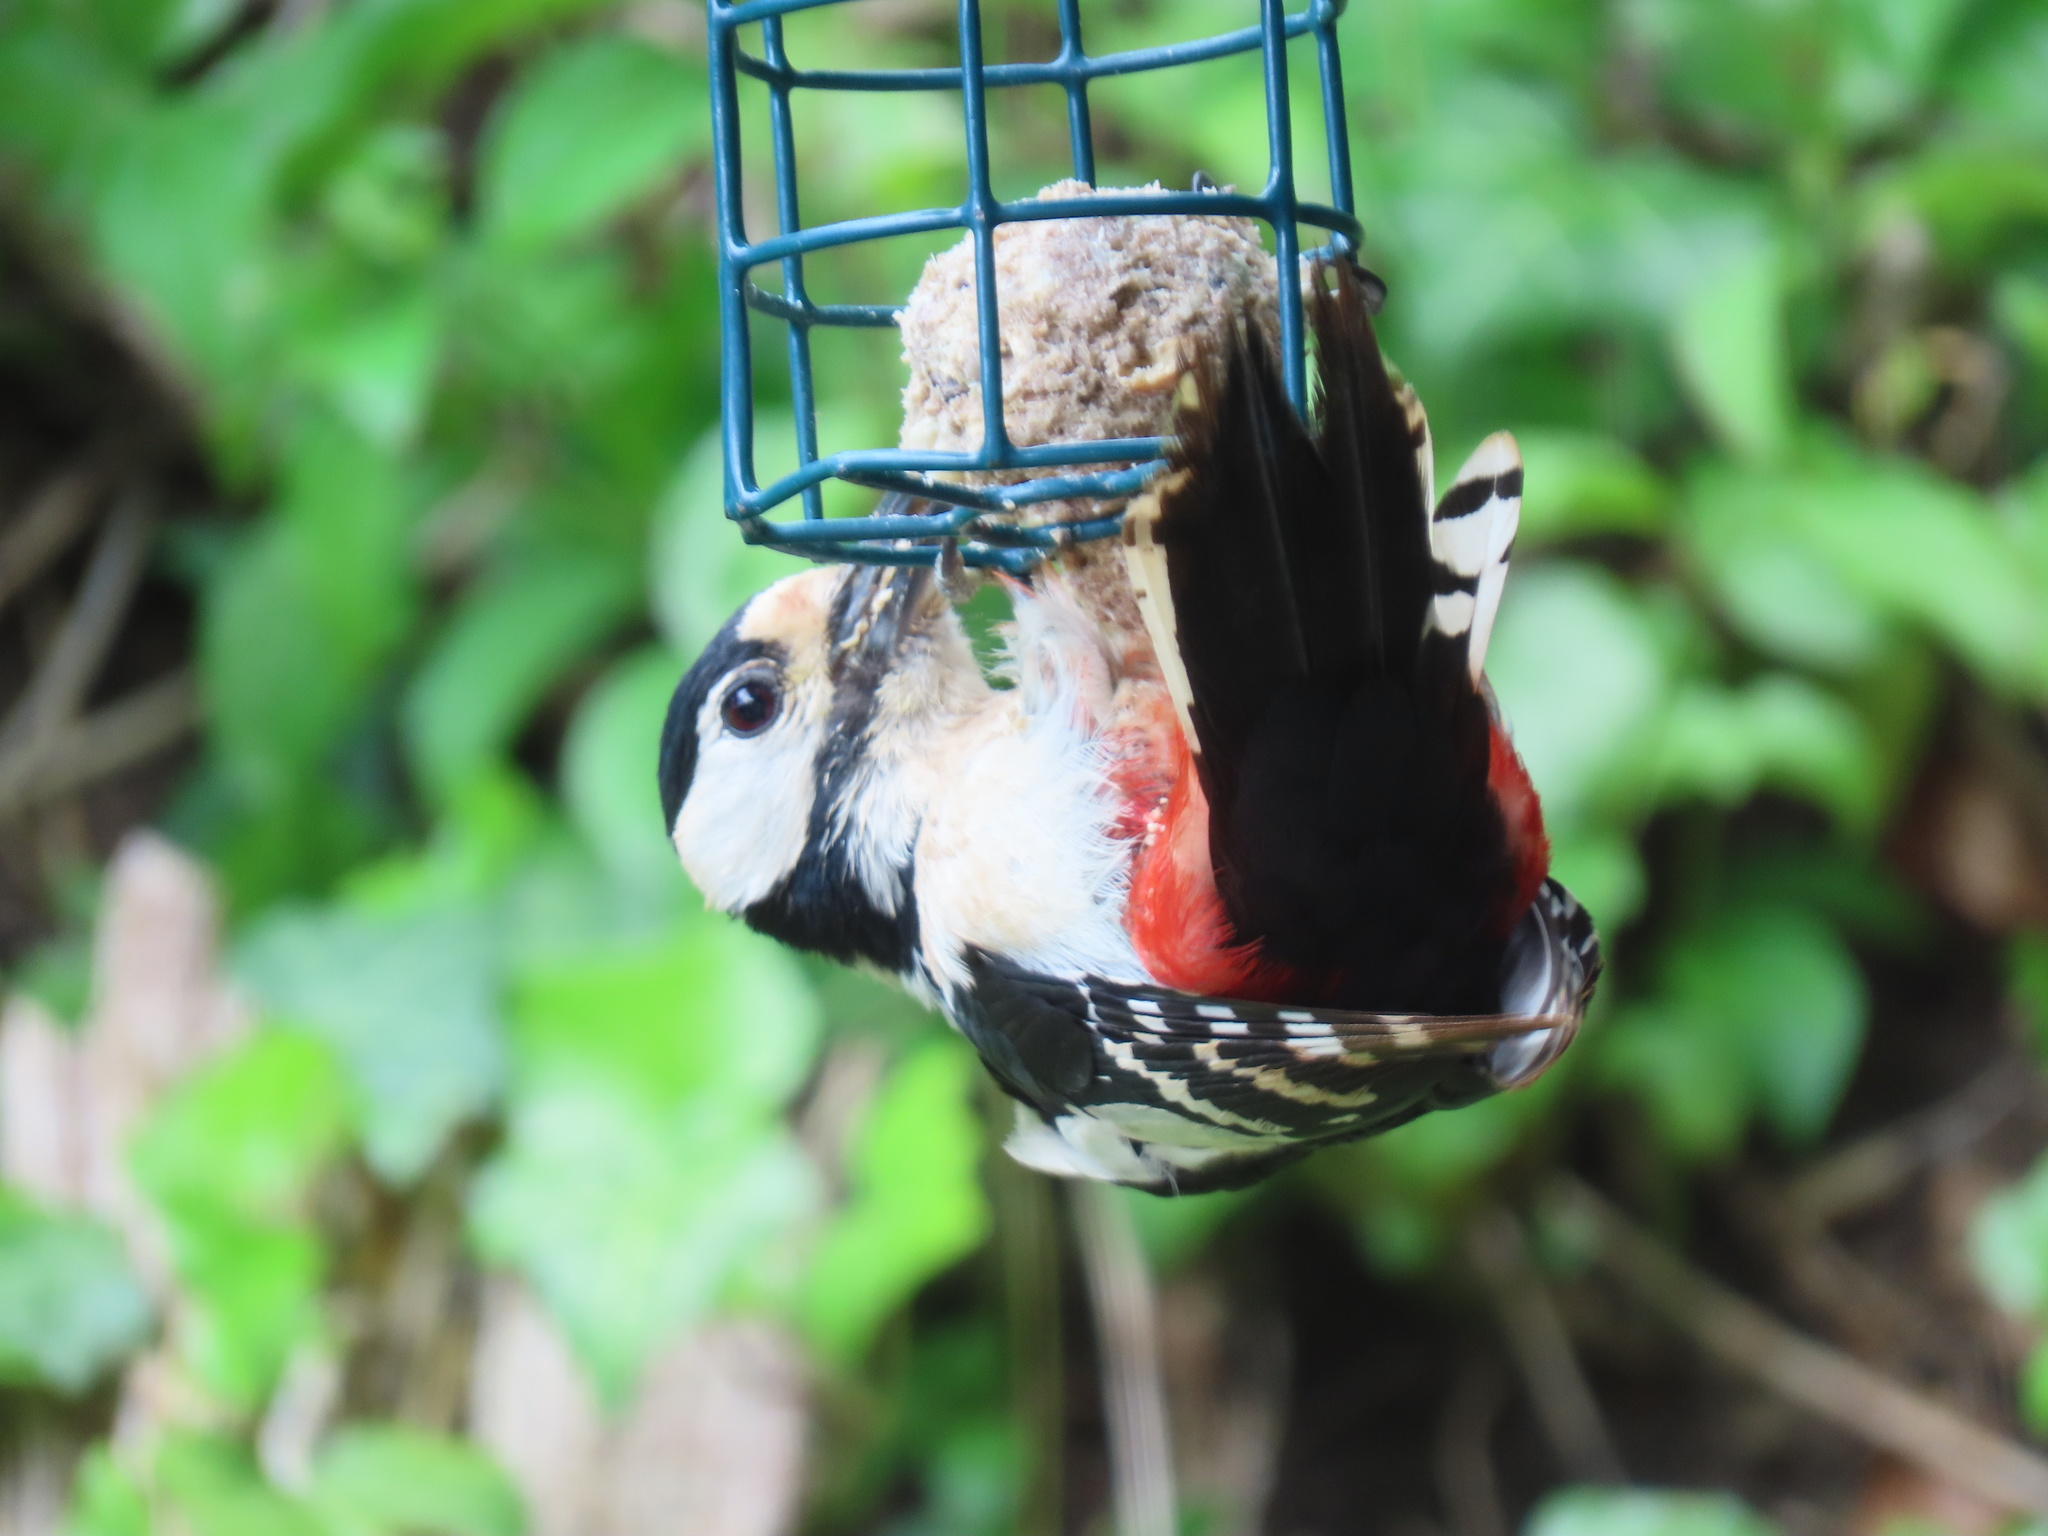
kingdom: Animalia
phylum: Chordata
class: Aves
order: Piciformes
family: Picidae
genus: Dendrocopos
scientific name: Dendrocopos major
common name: Great spotted woodpecker
